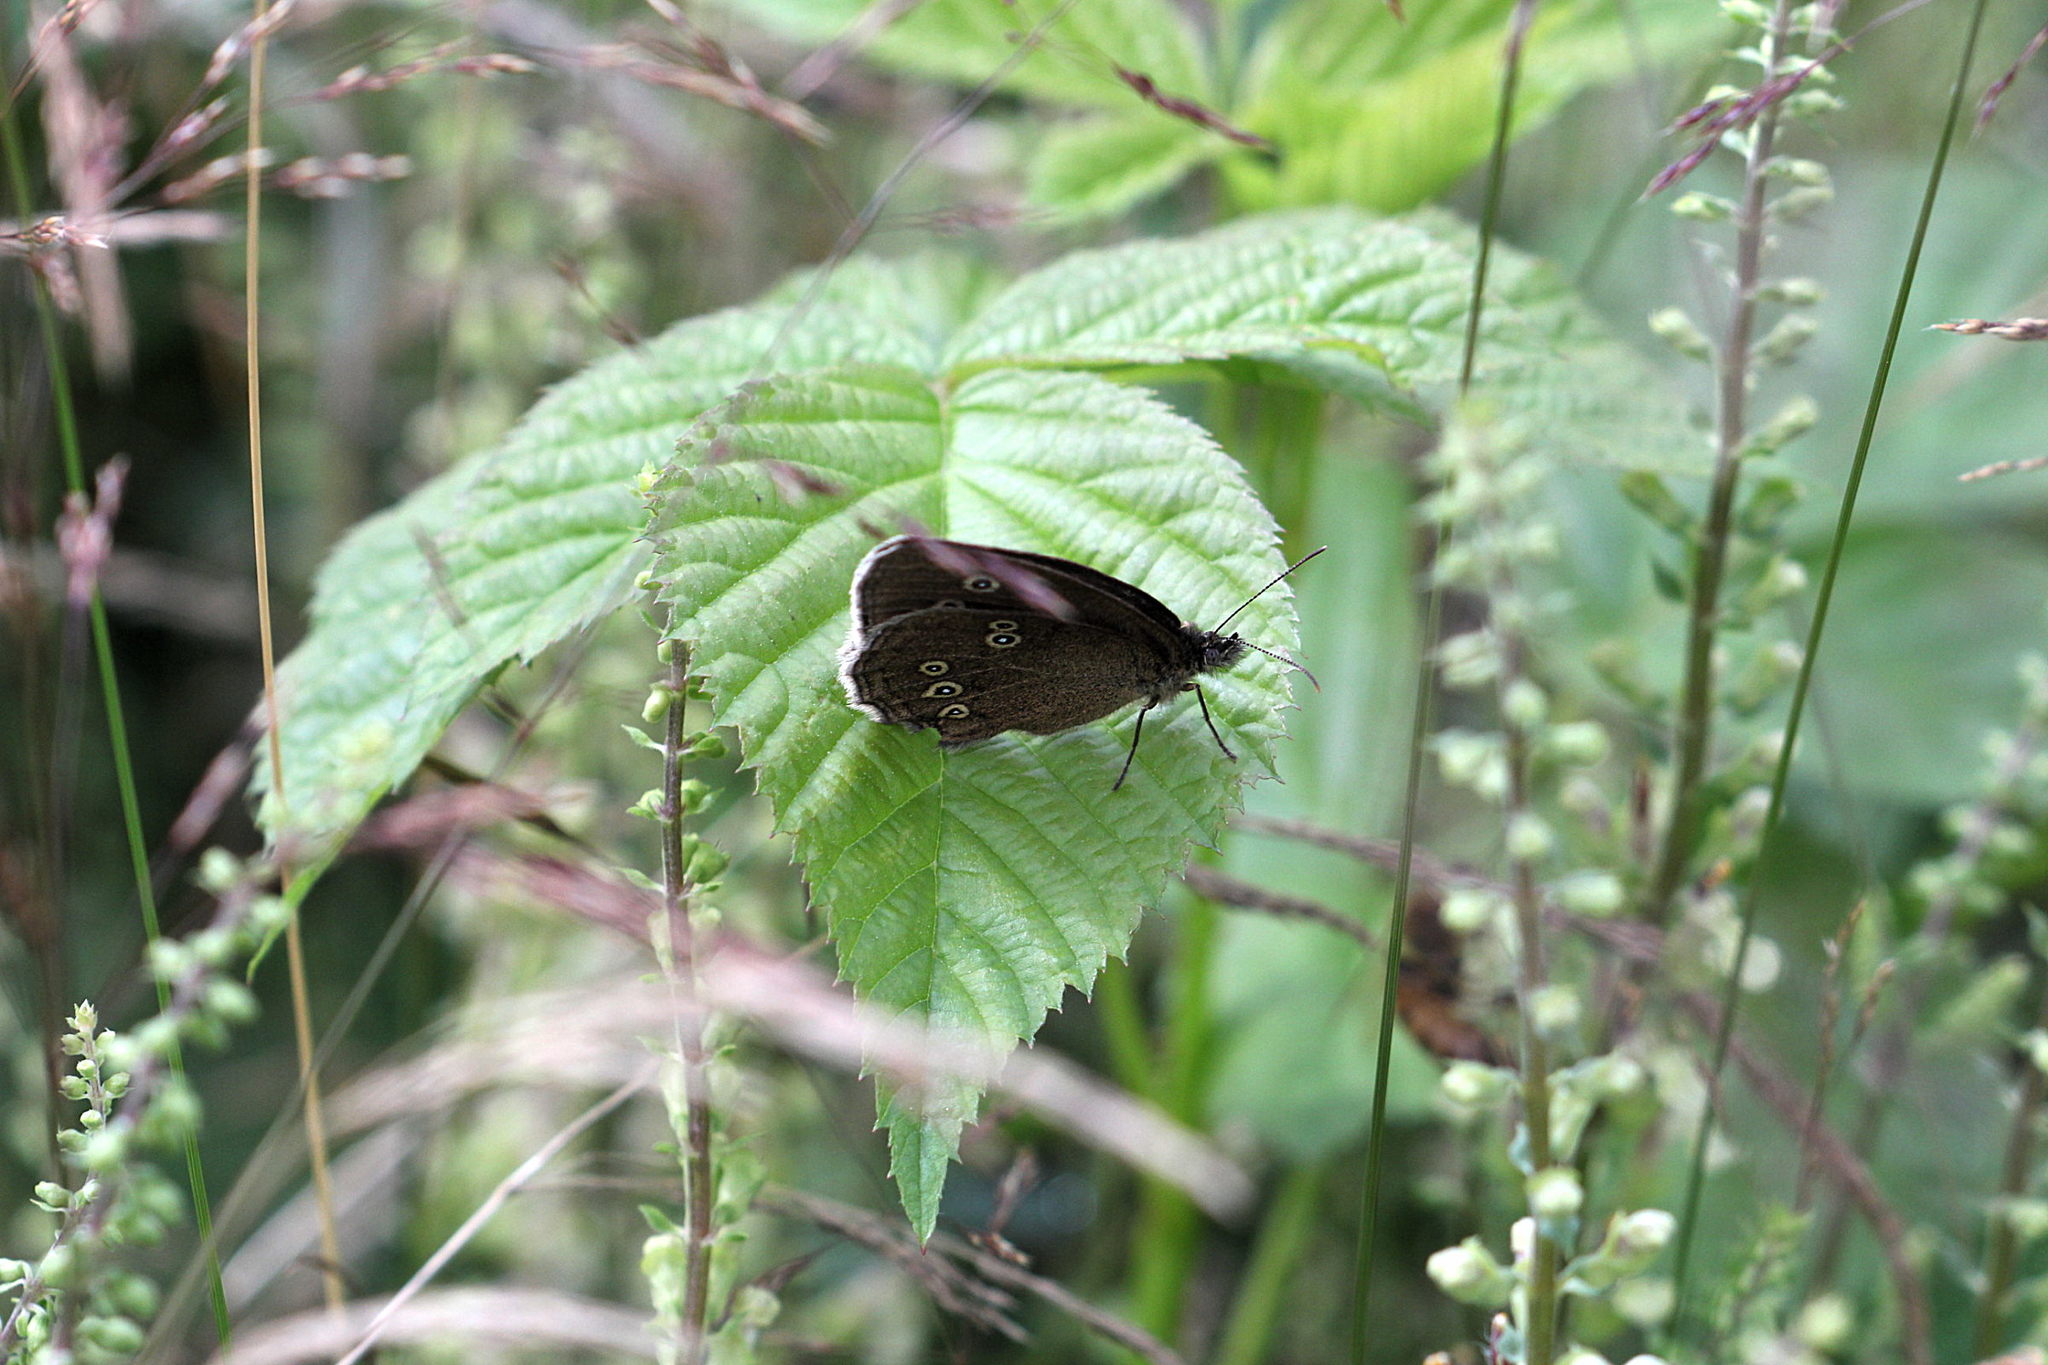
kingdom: Animalia
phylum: Arthropoda
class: Insecta
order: Lepidoptera
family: Nymphalidae
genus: Aphantopus
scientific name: Aphantopus hyperantus
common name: Ringlet
